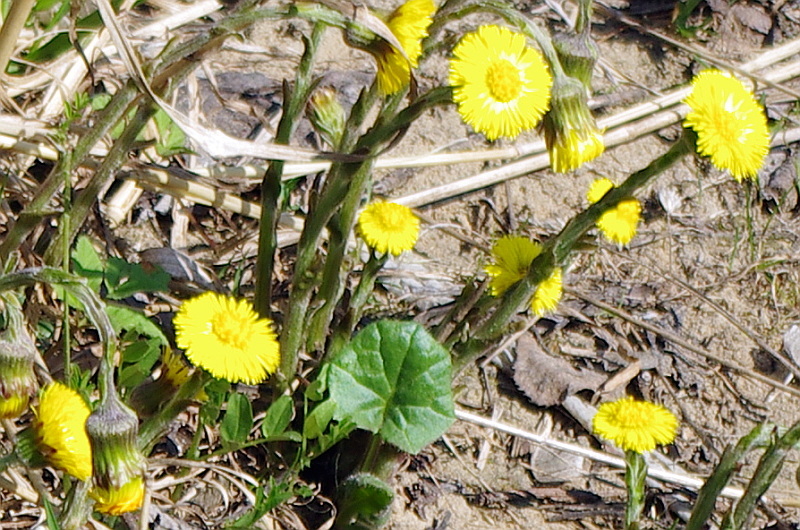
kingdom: Plantae
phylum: Tracheophyta
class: Magnoliopsida
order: Asterales
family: Asteraceae
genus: Tussilago
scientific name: Tussilago farfara
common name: Coltsfoot
